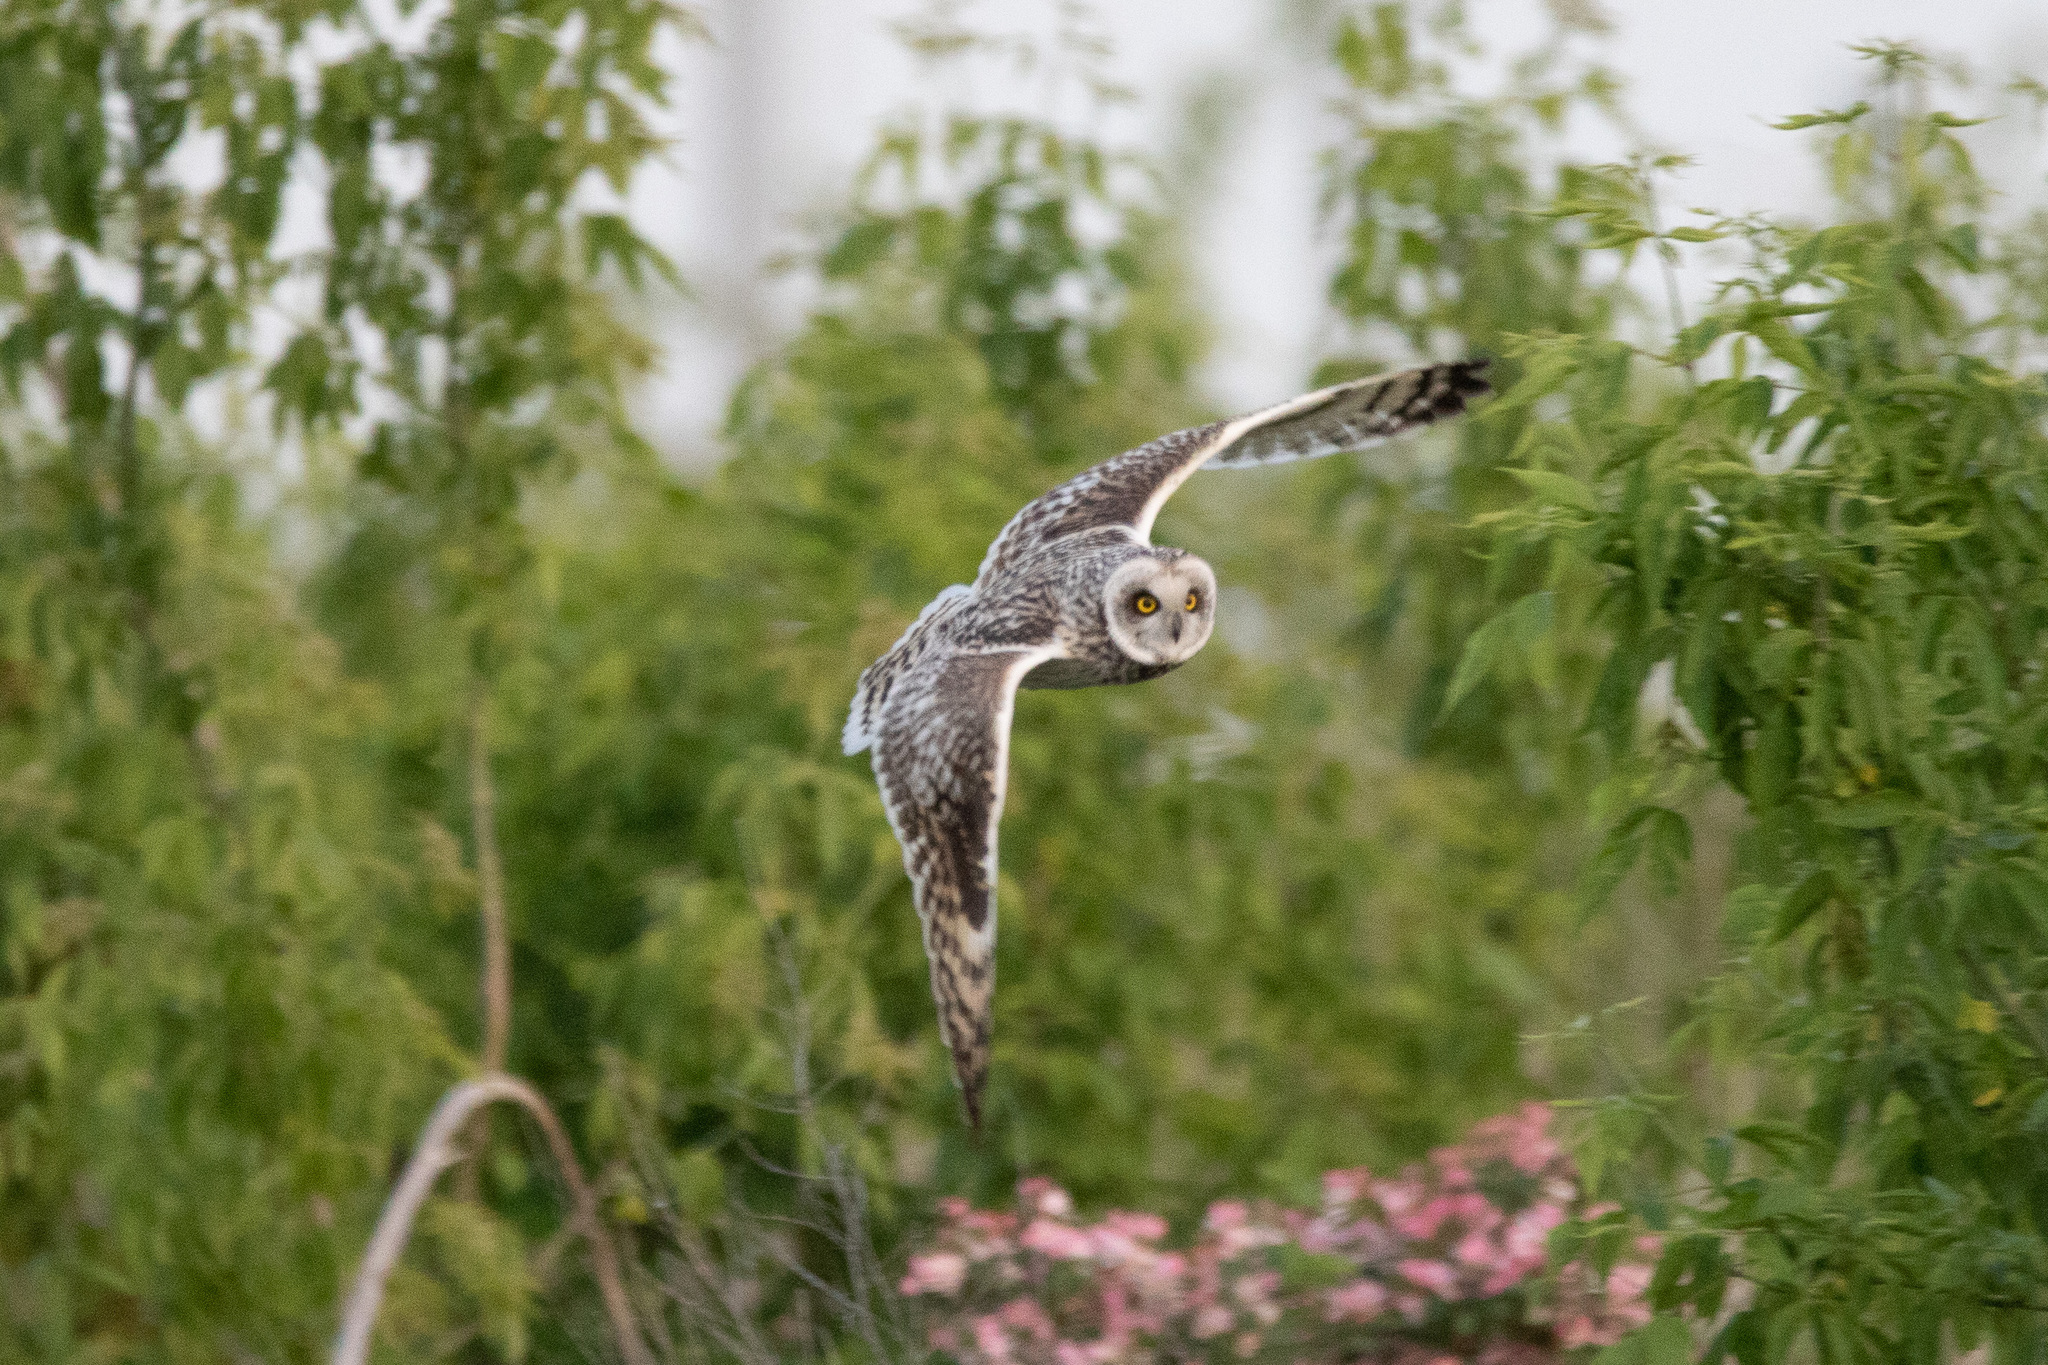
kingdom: Animalia
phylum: Chordata
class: Aves
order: Strigiformes
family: Strigidae
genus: Asio
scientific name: Asio flammeus
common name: Short-eared owl
